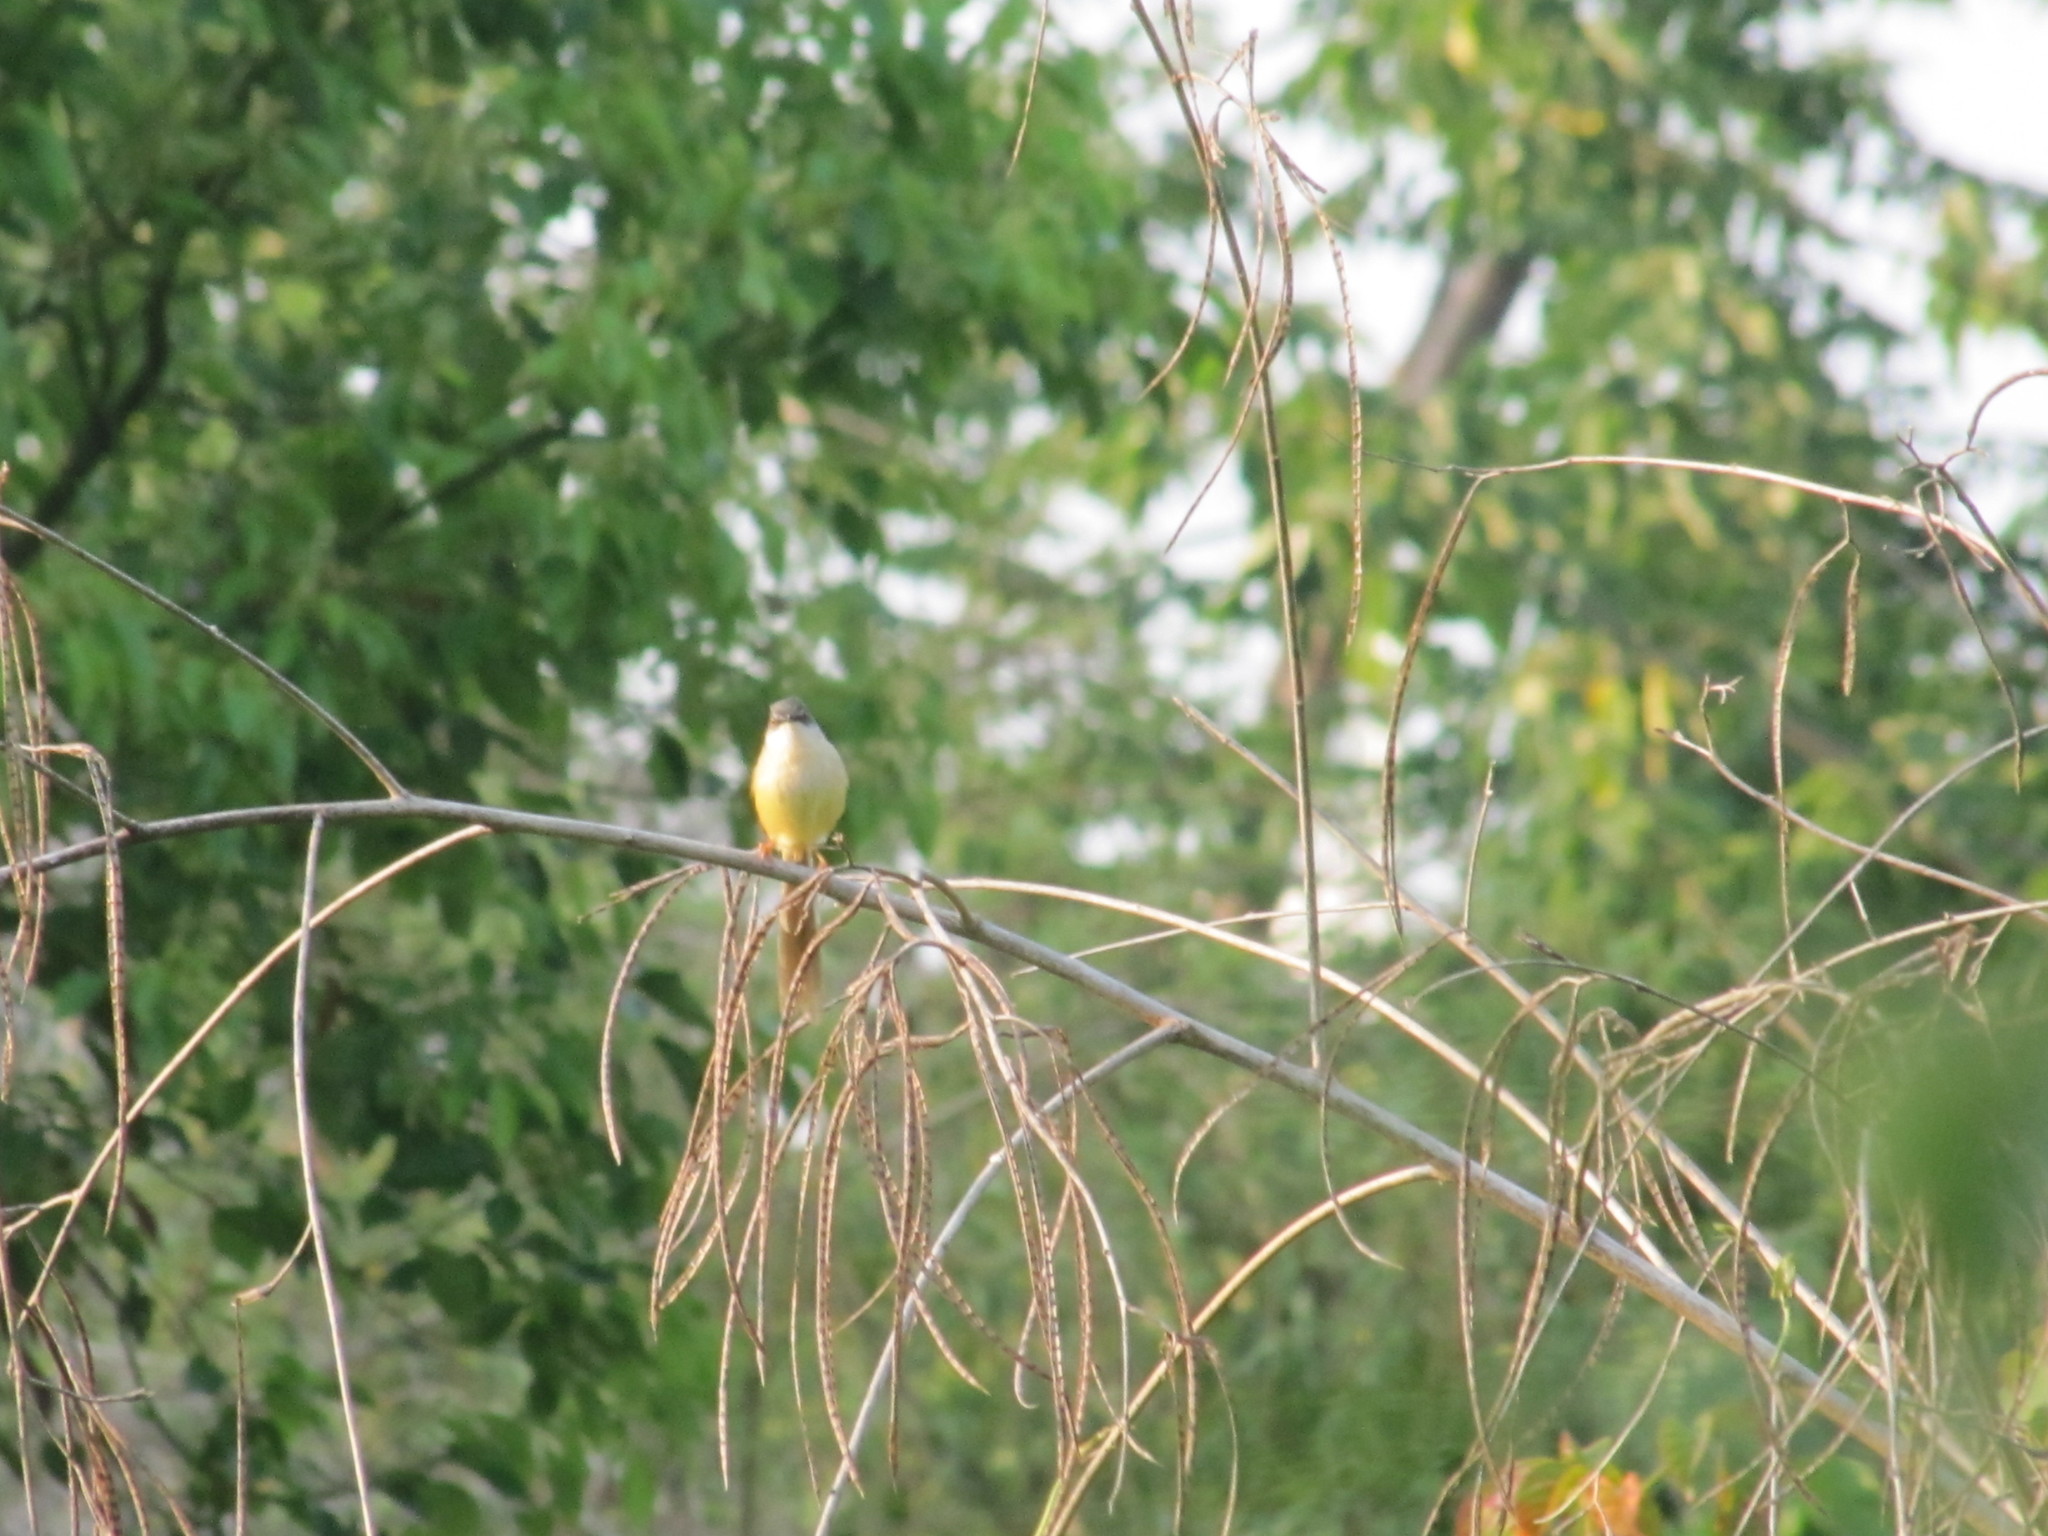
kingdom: Animalia
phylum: Chordata
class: Aves
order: Passeriformes
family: Cisticolidae
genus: Prinia
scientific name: Prinia flaviventris
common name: Yellow-bellied prinia
